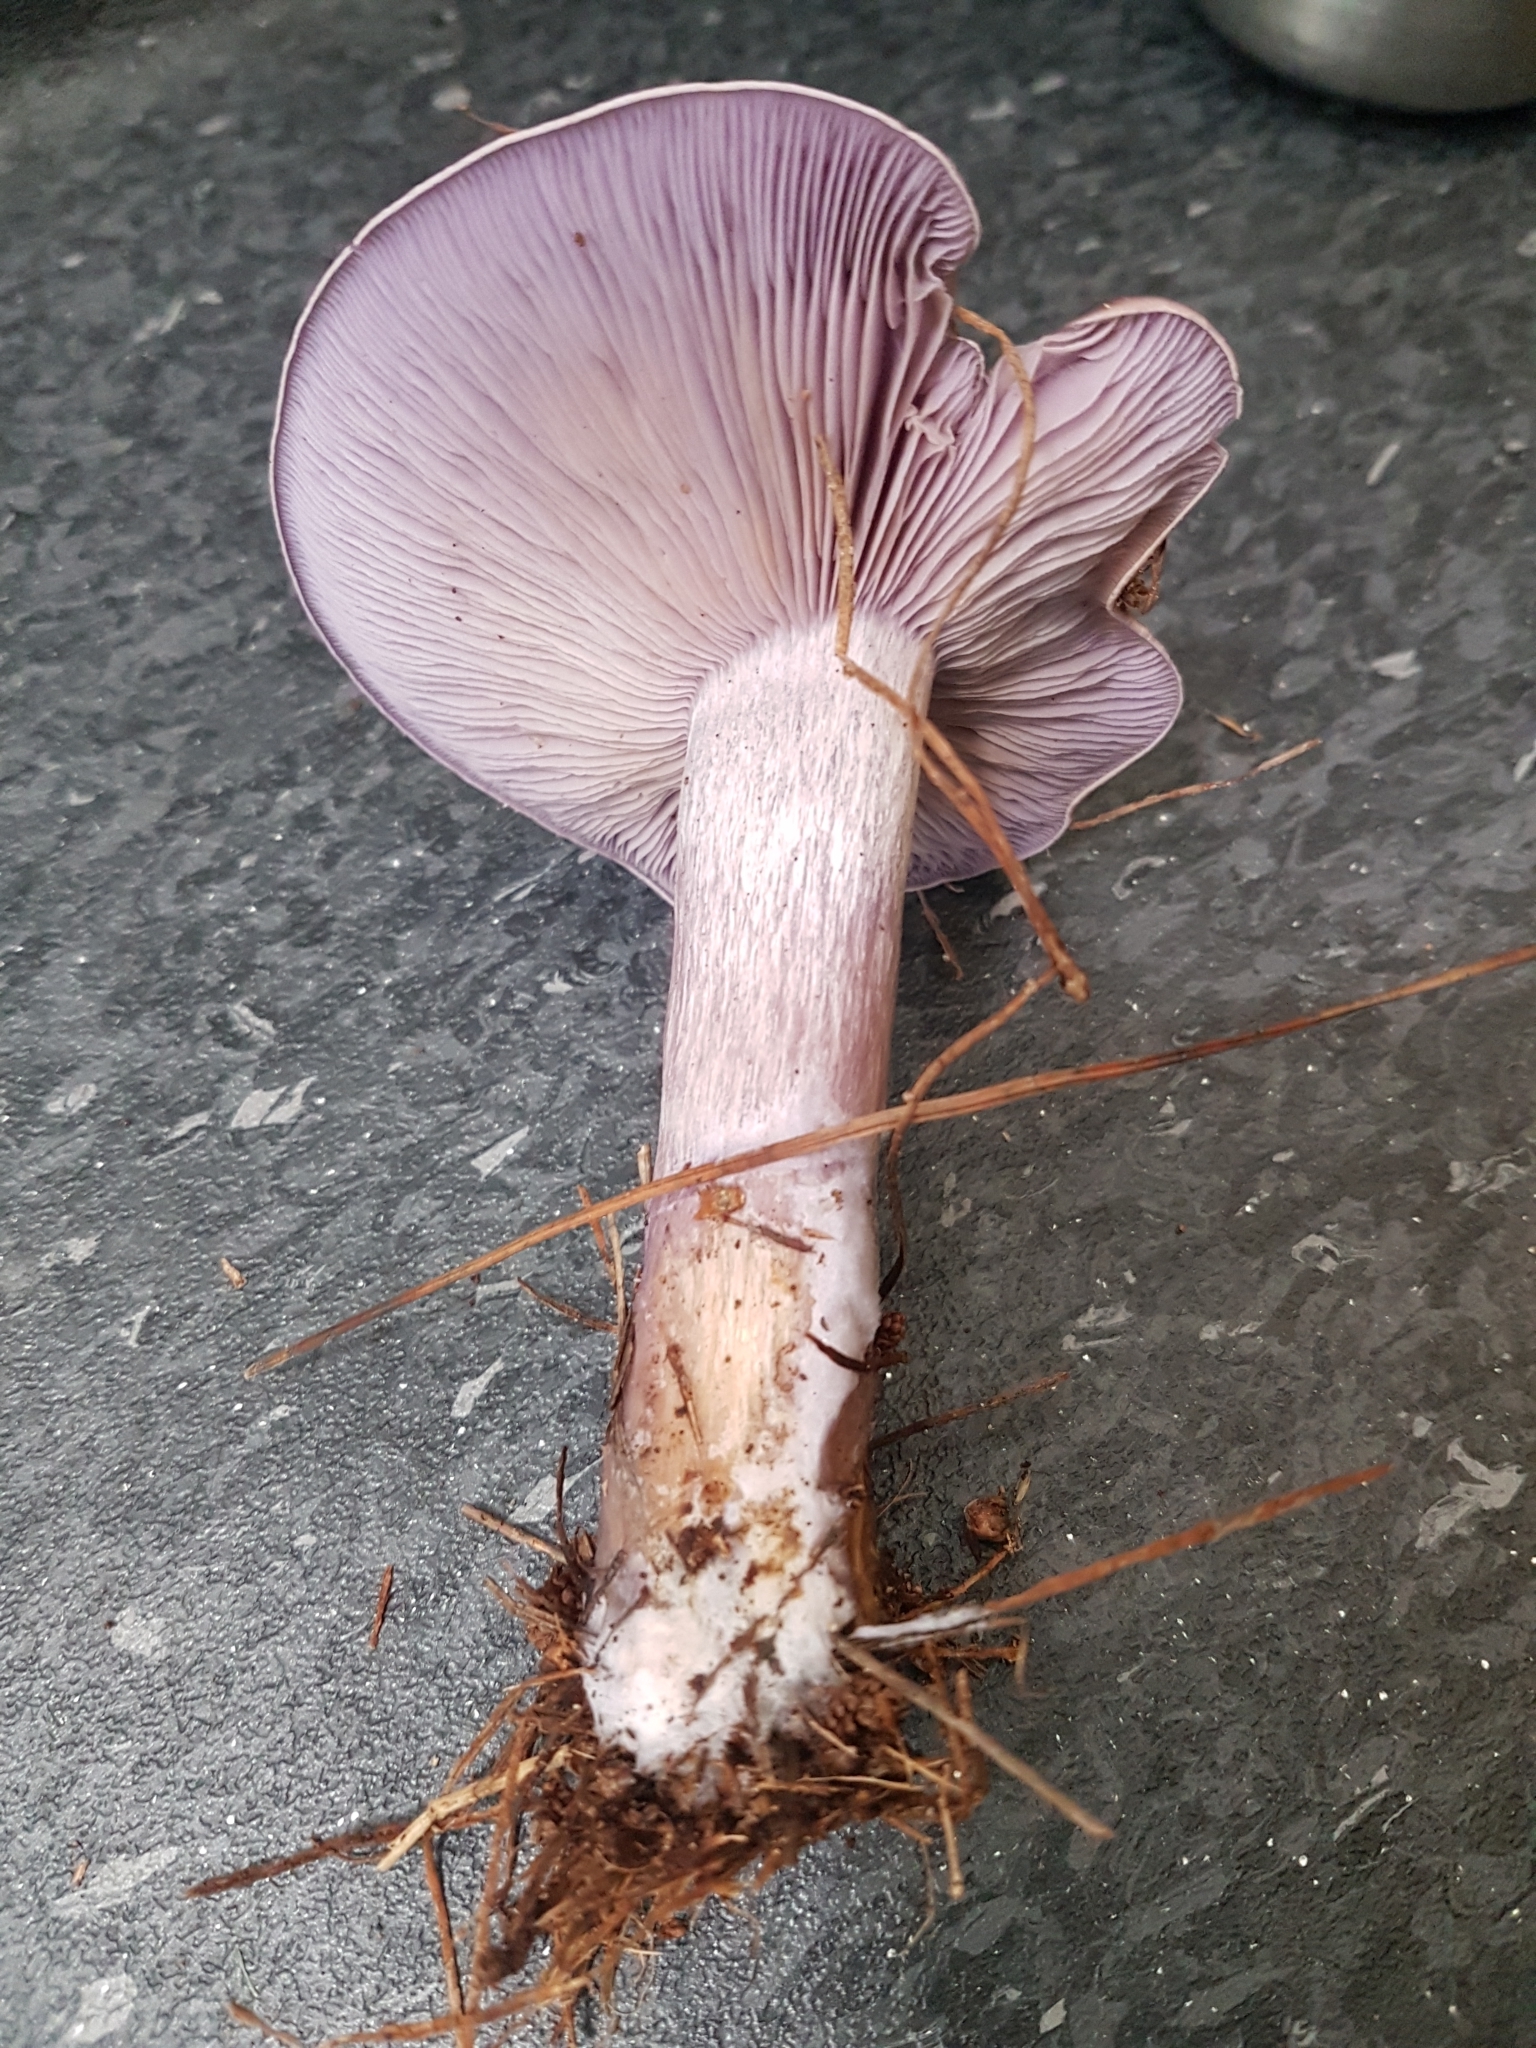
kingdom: Fungi
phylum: Basidiomycota
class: Agaricomycetes
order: Agaricales
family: Tricholomataceae
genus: Collybia
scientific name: Collybia
